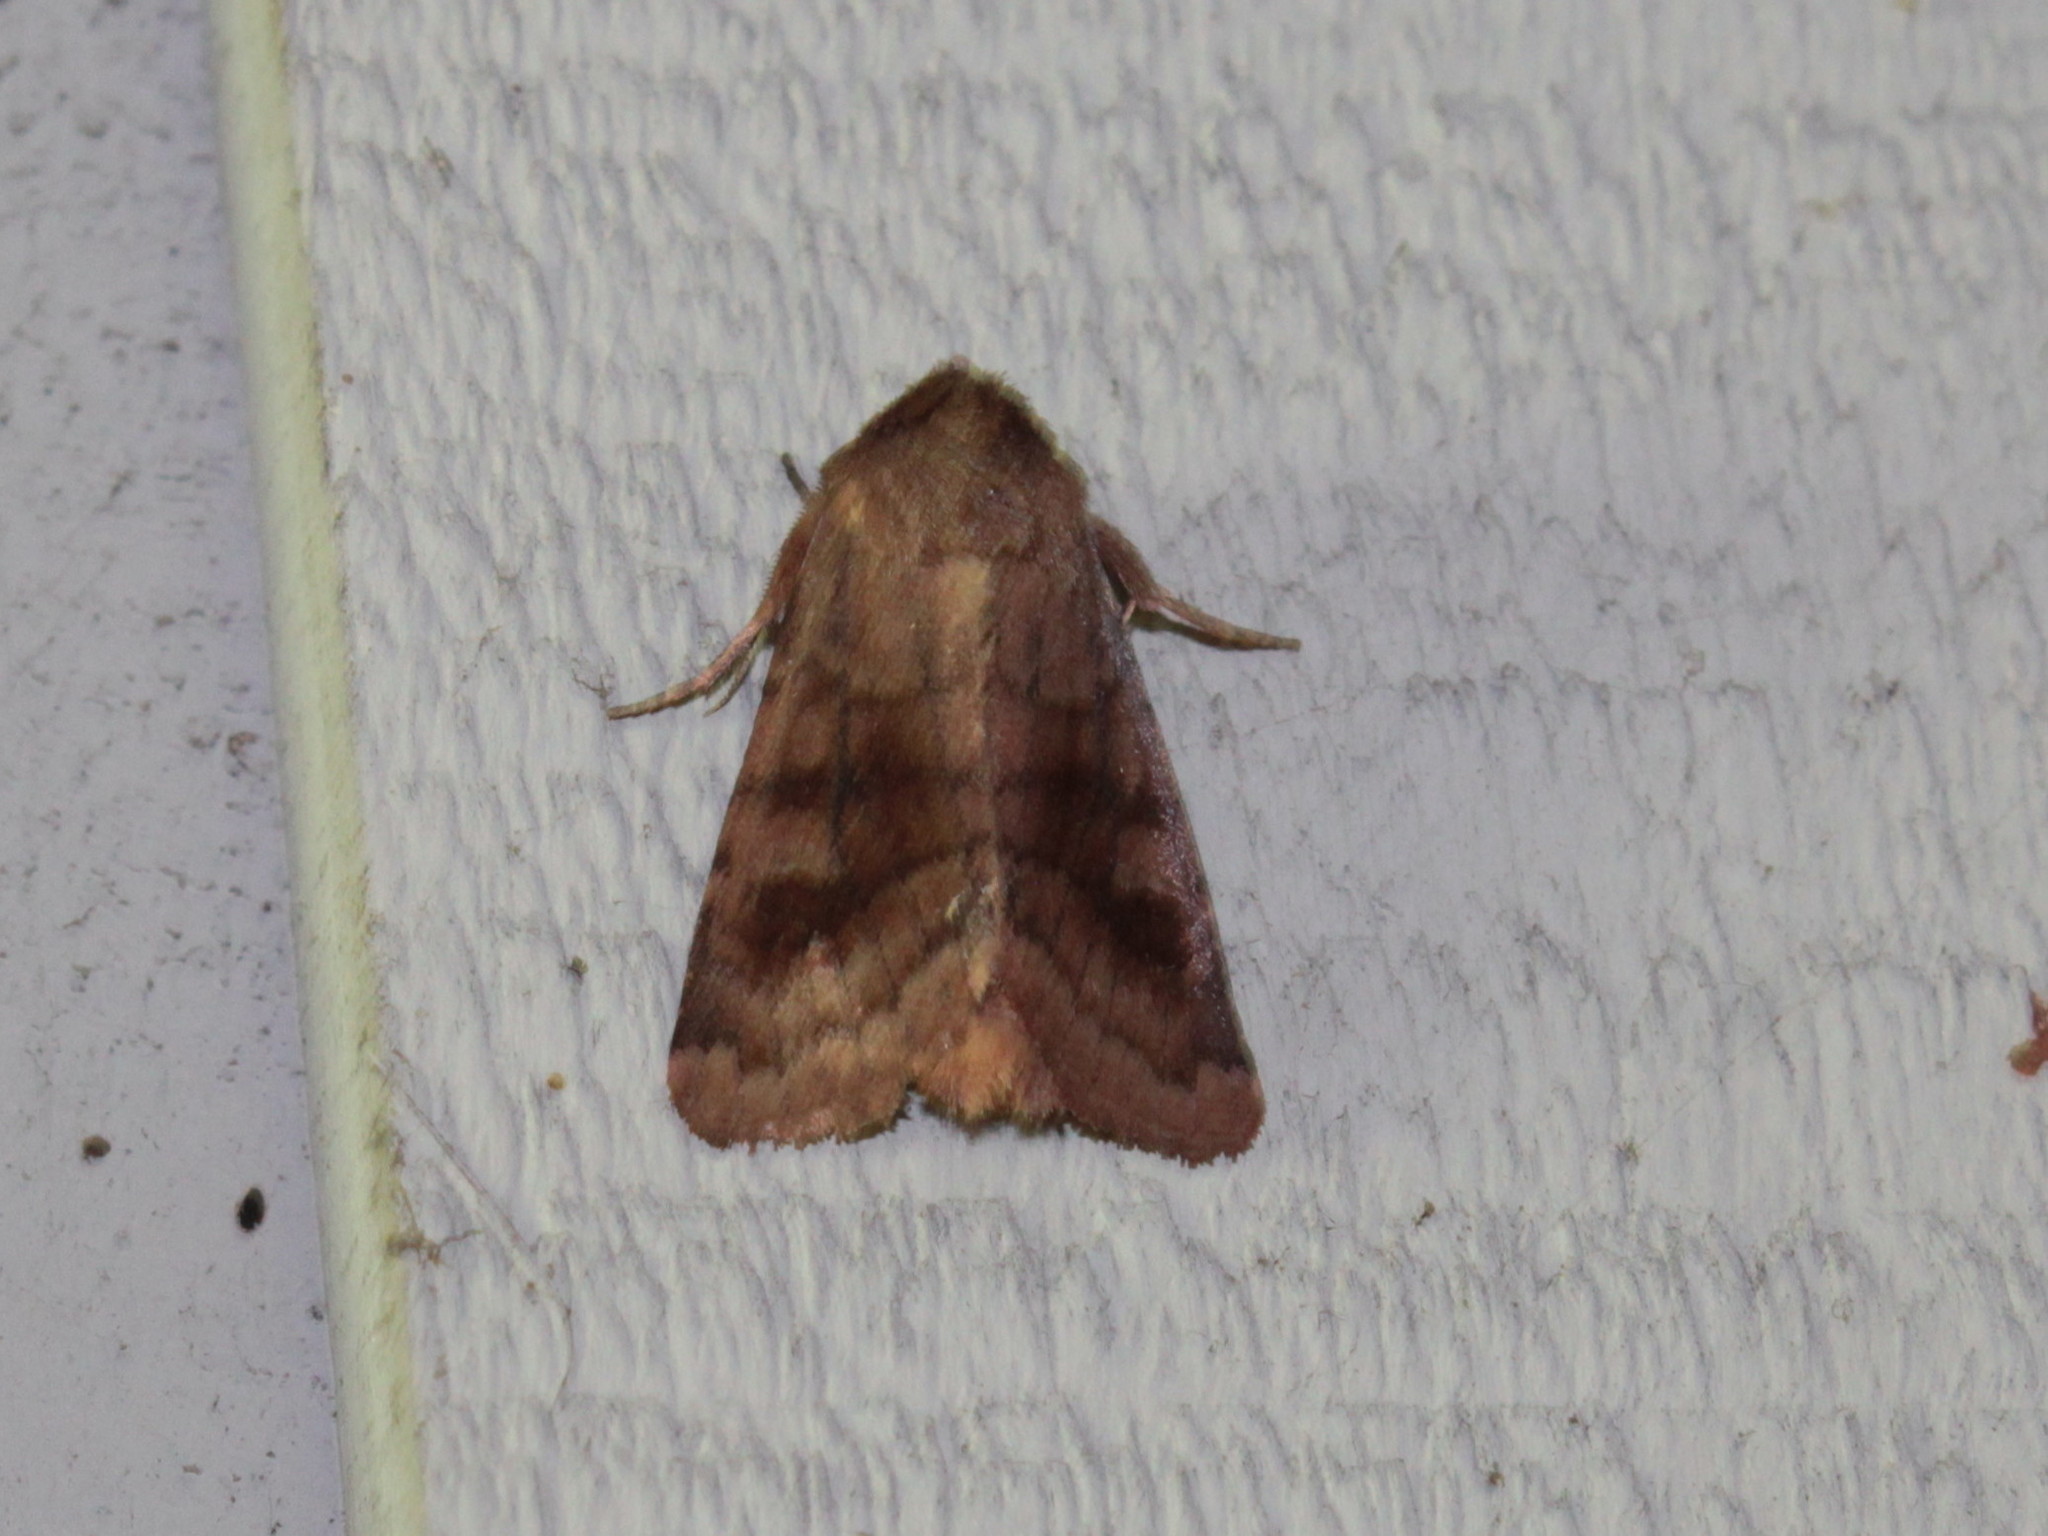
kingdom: Animalia
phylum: Arthropoda
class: Insecta
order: Lepidoptera
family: Noctuidae
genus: Nephelodes
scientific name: Nephelodes minians
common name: Bronzed cutworm
